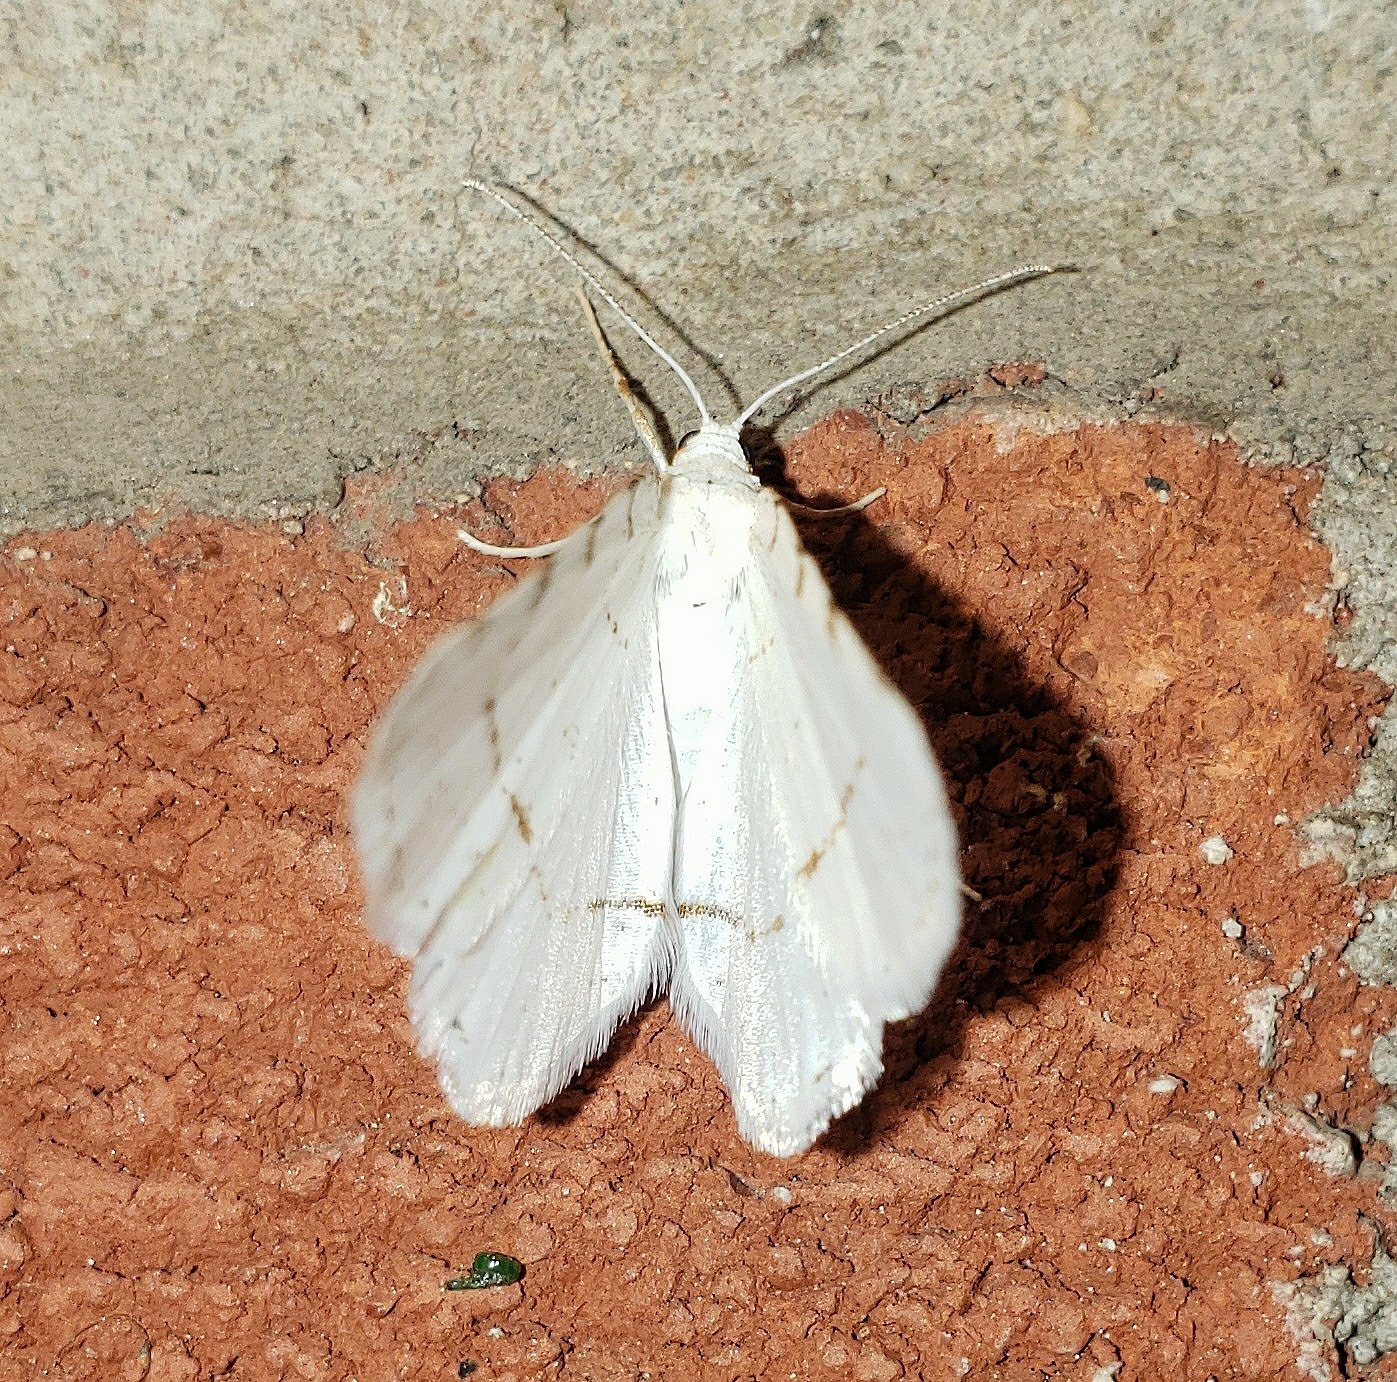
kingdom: Animalia
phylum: Arthropoda
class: Insecta
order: Lepidoptera
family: Geometridae
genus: Macaria
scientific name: Macaria pustularia
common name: Lesser maple spanworm moth
